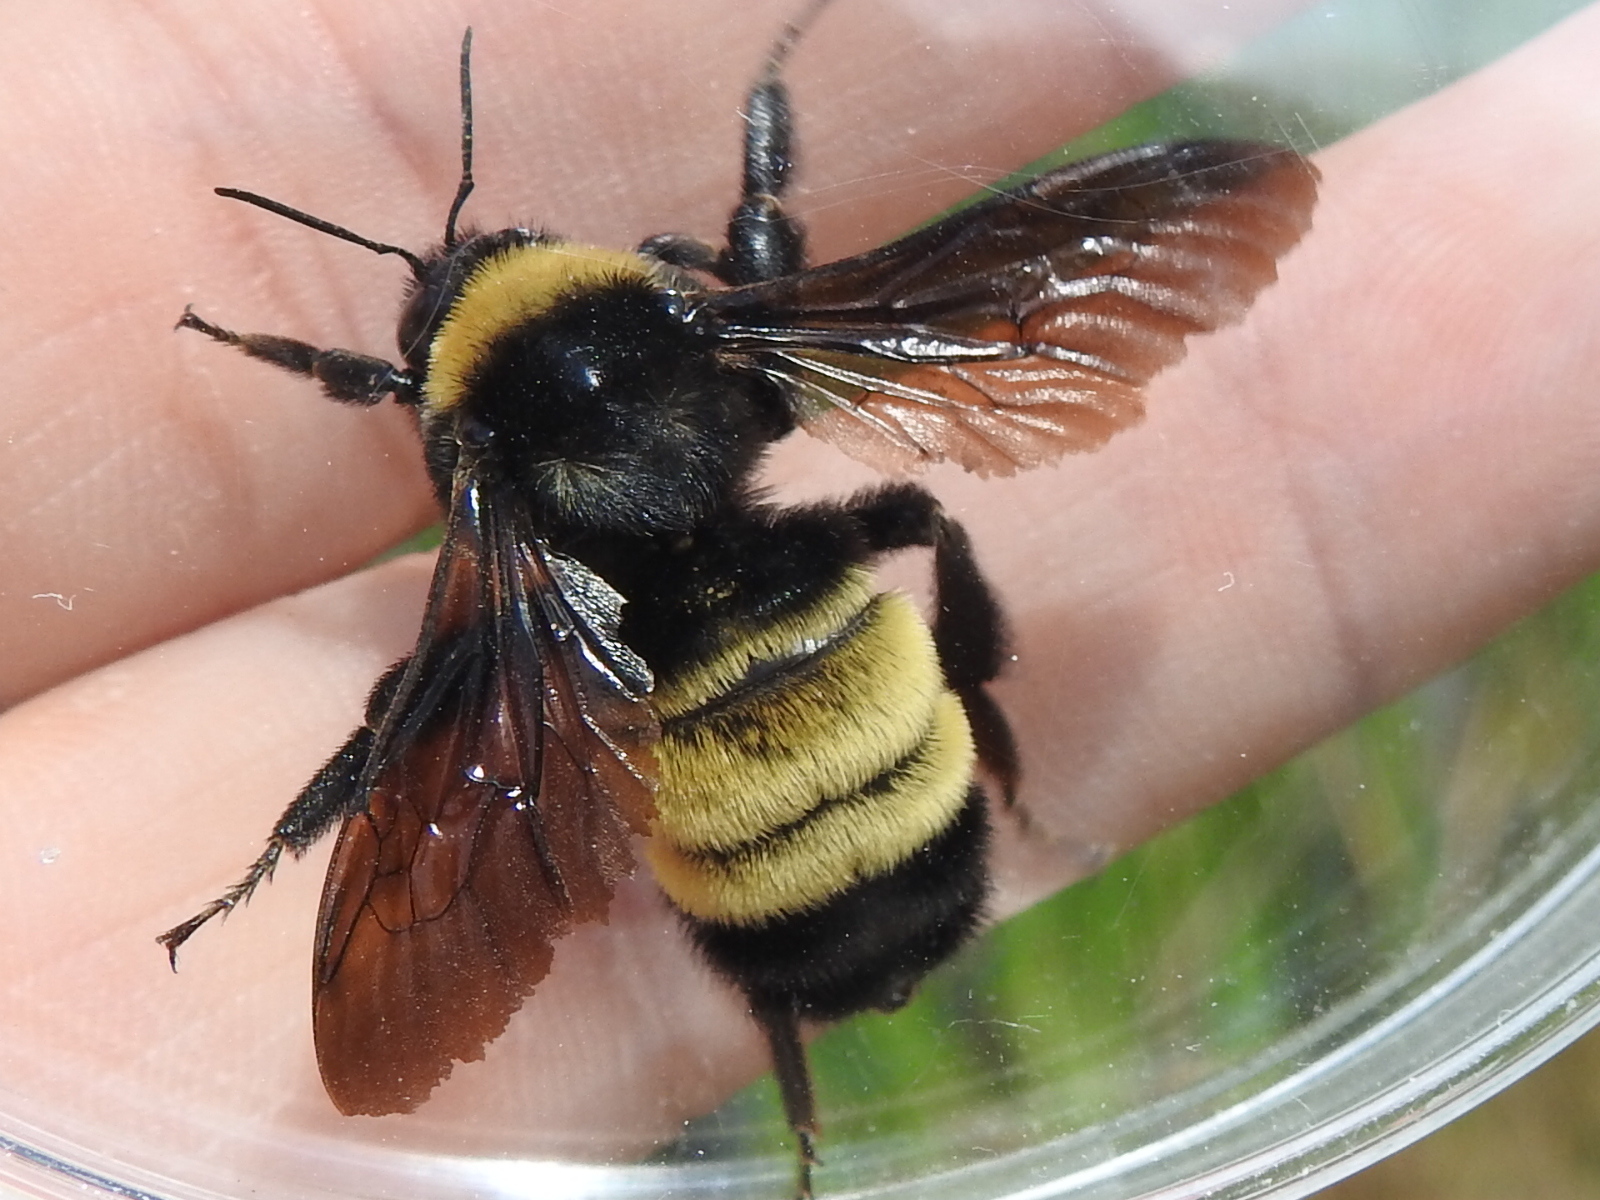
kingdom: Animalia
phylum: Arthropoda
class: Insecta
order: Hymenoptera
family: Apidae
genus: Bombus
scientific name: Bombus pensylvanicus
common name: Bumble bee
